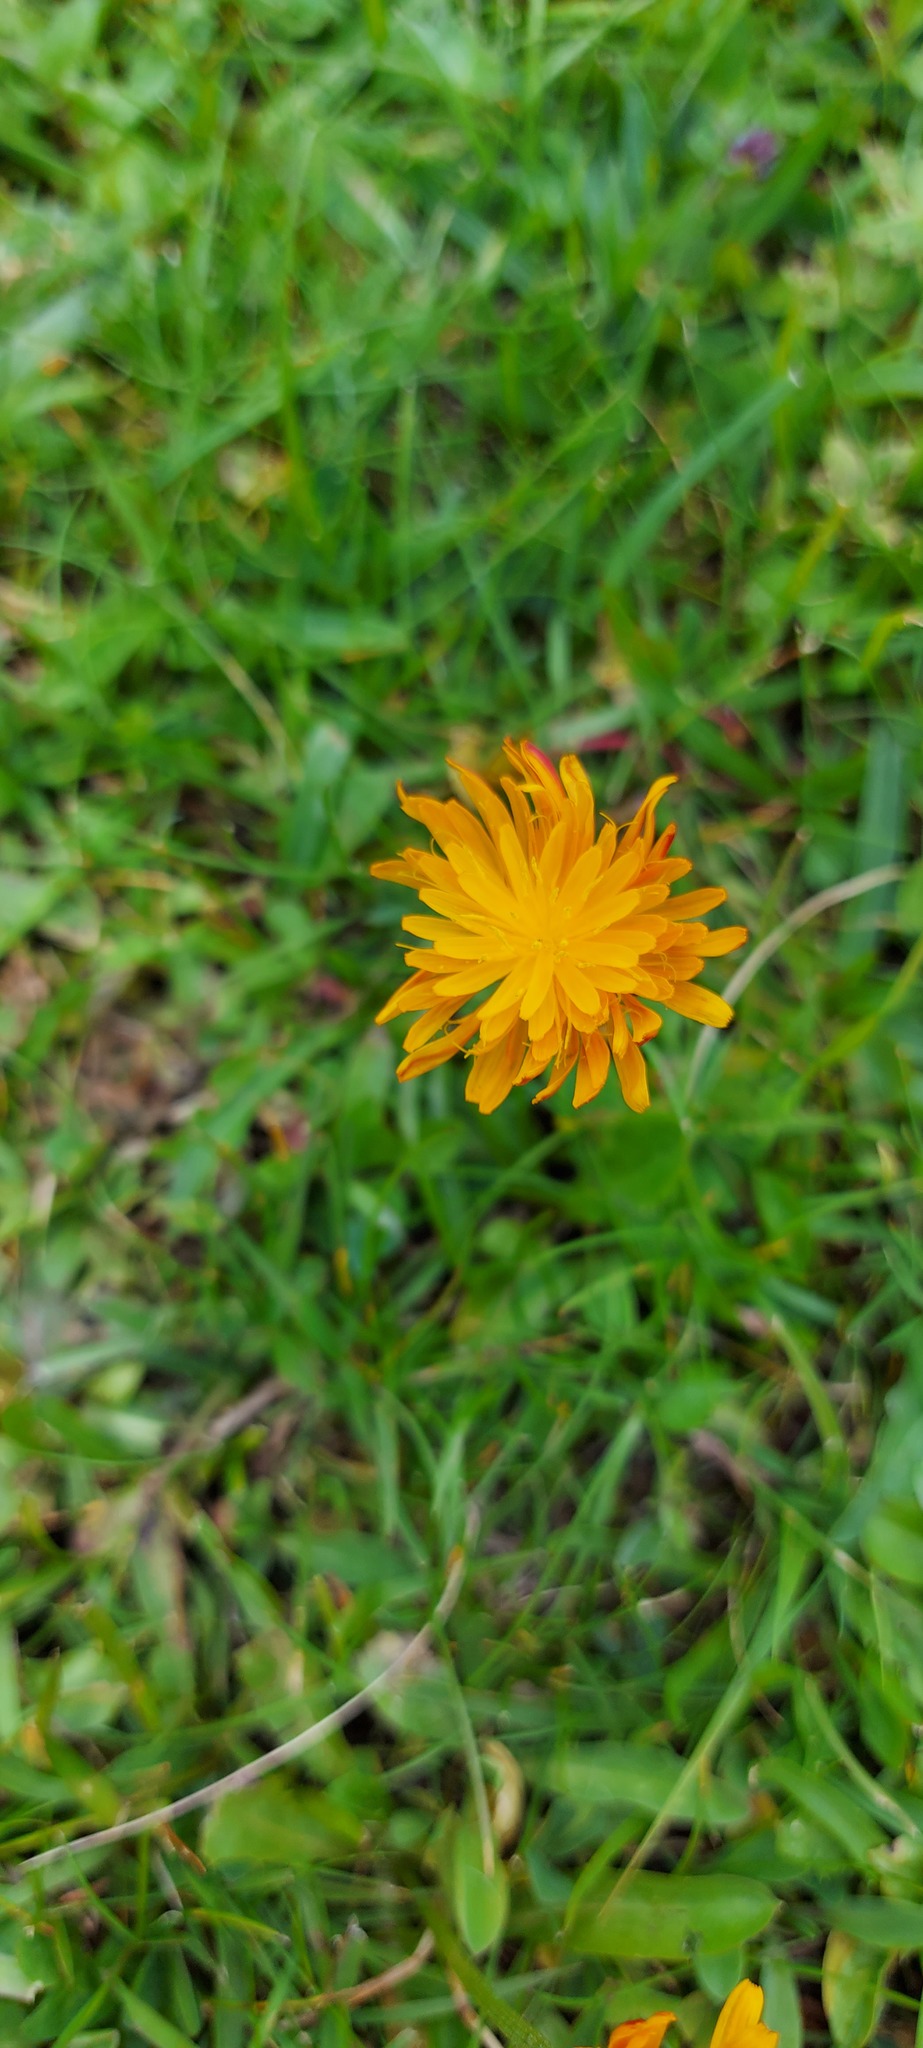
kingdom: Plantae
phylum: Tracheophyta
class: Magnoliopsida
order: Asterales
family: Asteraceae
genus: Crepis
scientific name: Crepis aurea
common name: Golden hawk's-beard
